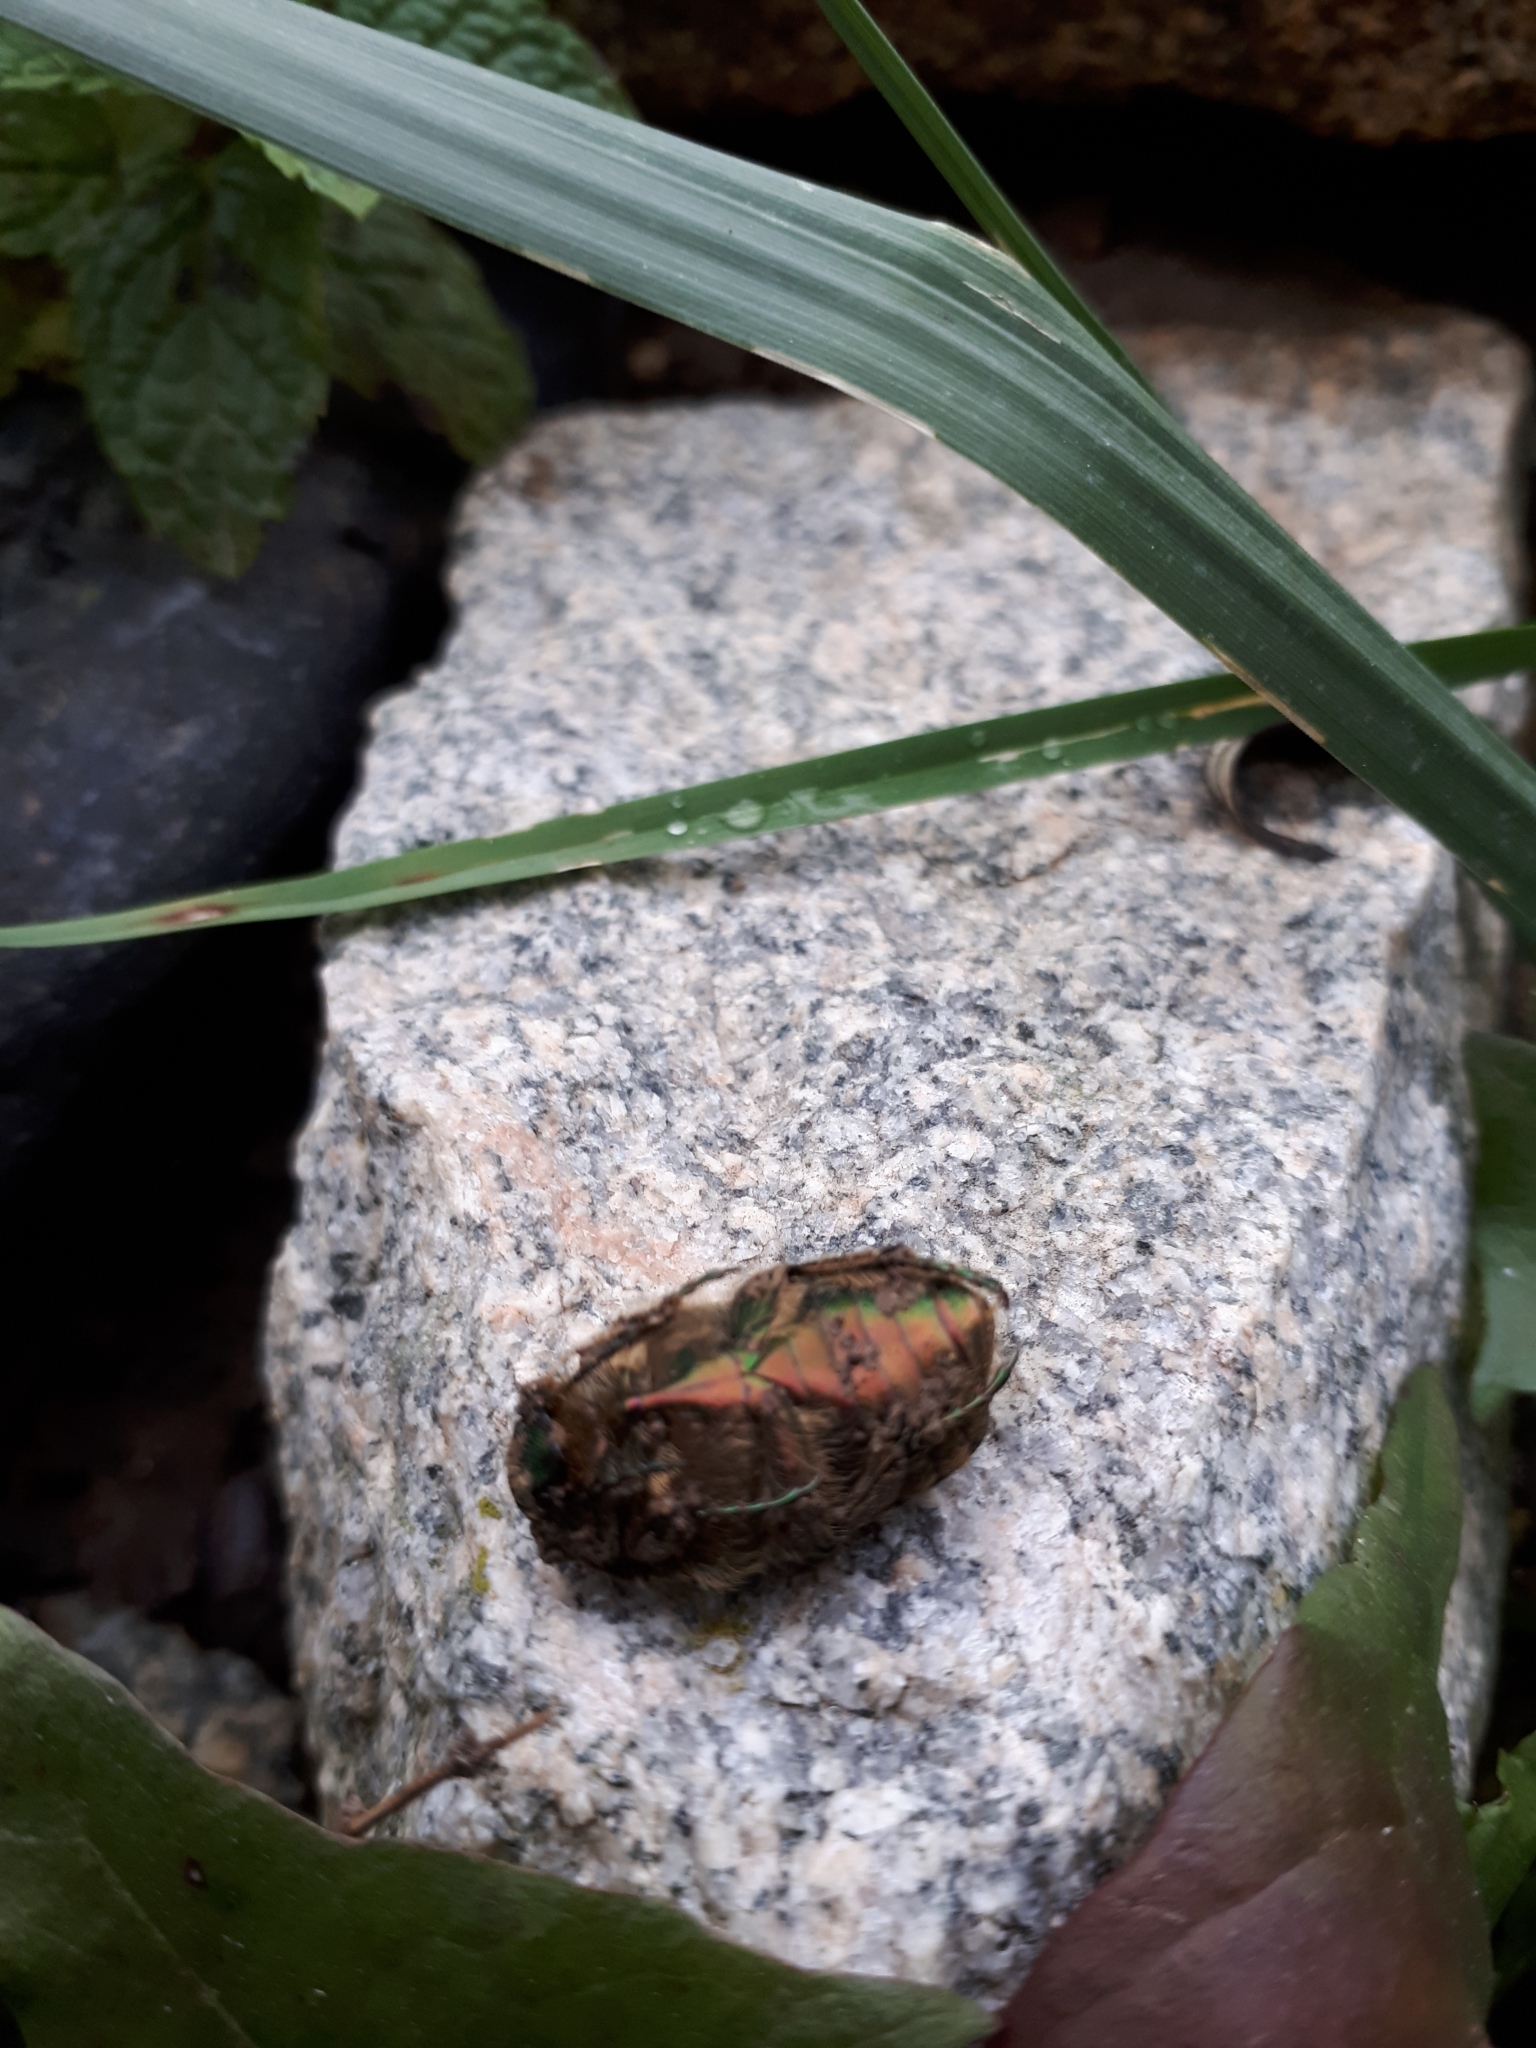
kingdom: Animalia
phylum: Arthropoda
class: Insecta
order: Coleoptera
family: Scarabaeidae
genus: Cetonia
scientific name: Cetonia aurata
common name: Rose chafer
